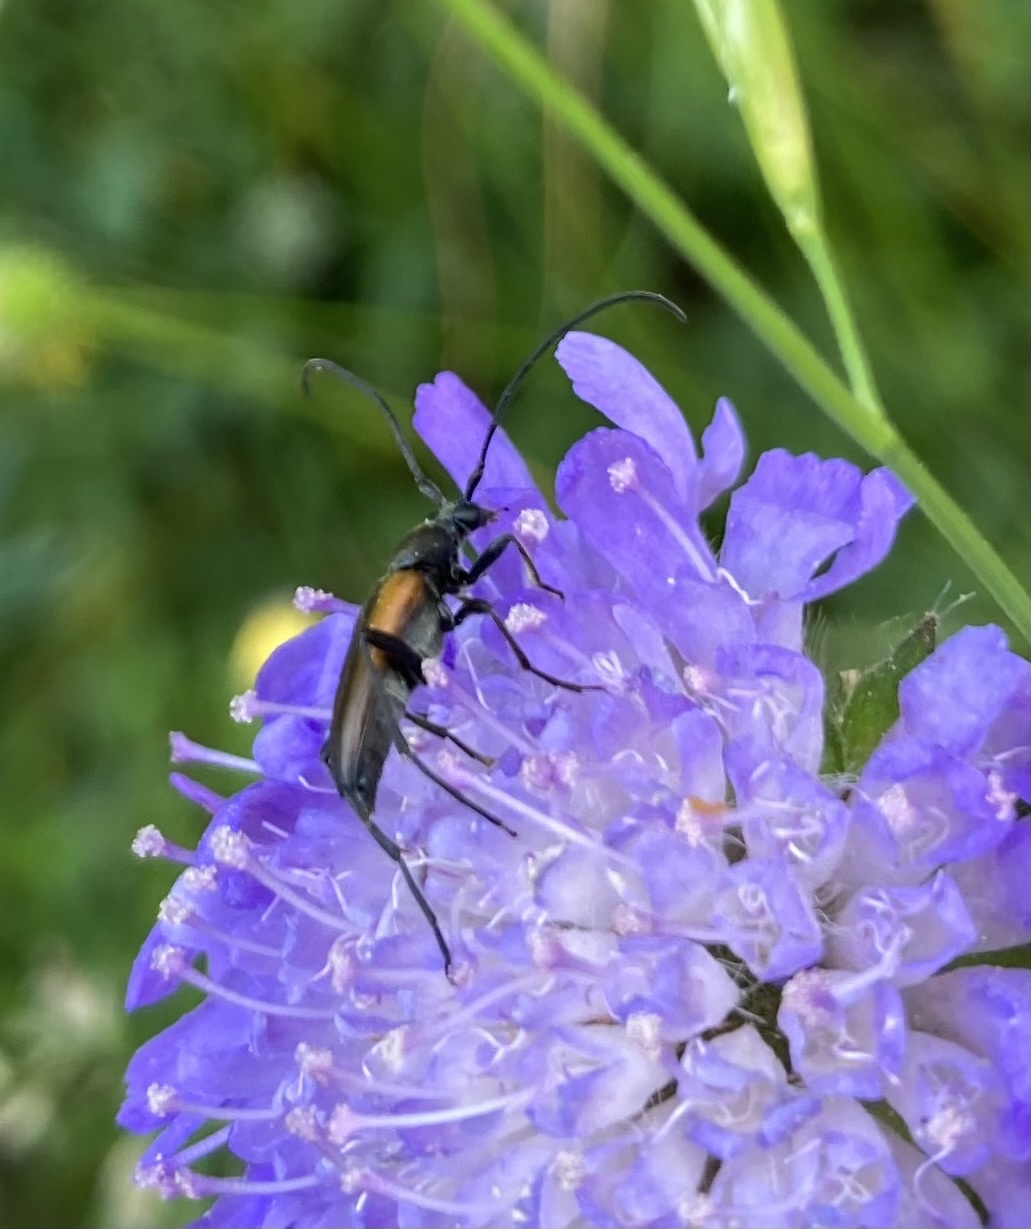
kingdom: Animalia
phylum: Arthropoda
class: Insecta
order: Coleoptera
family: Cerambycidae
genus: Stenurella
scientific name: Stenurella melanura
